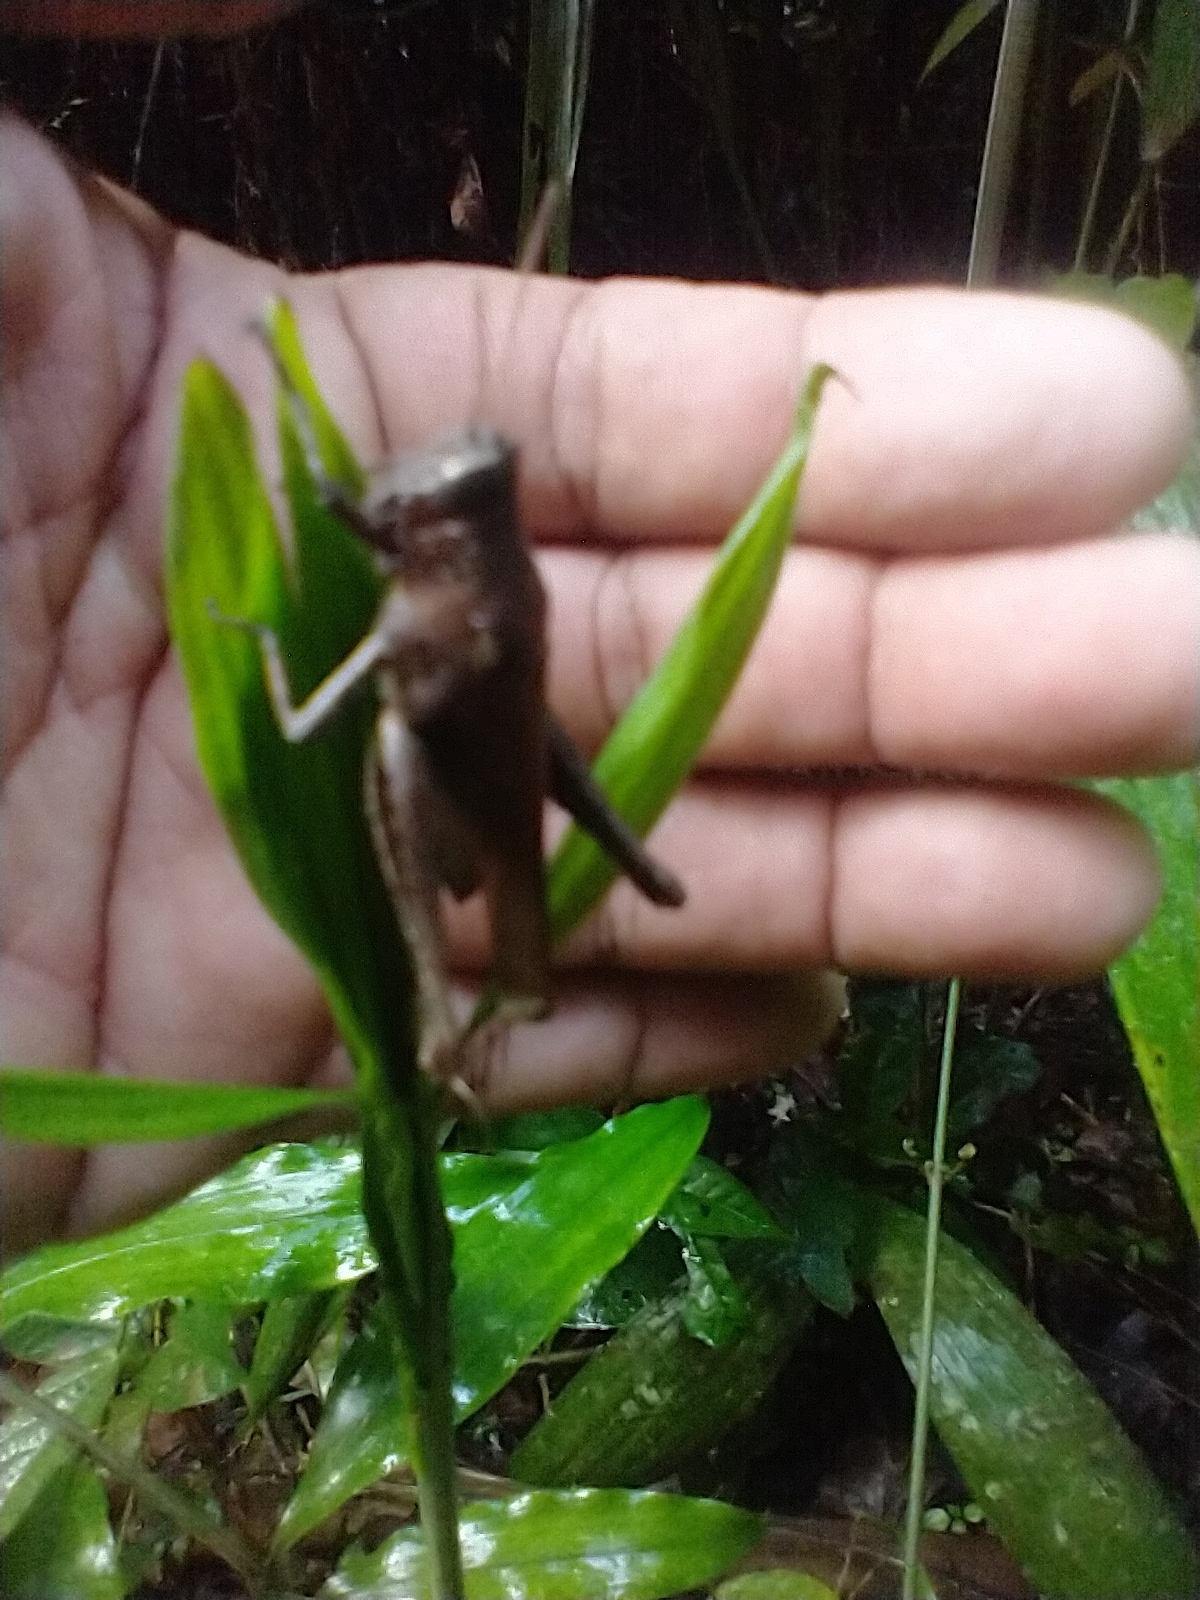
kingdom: Animalia
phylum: Arthropoda
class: Insecta
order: Orthoptera
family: Acrididae
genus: Abracris
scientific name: Abracris flavolineata
